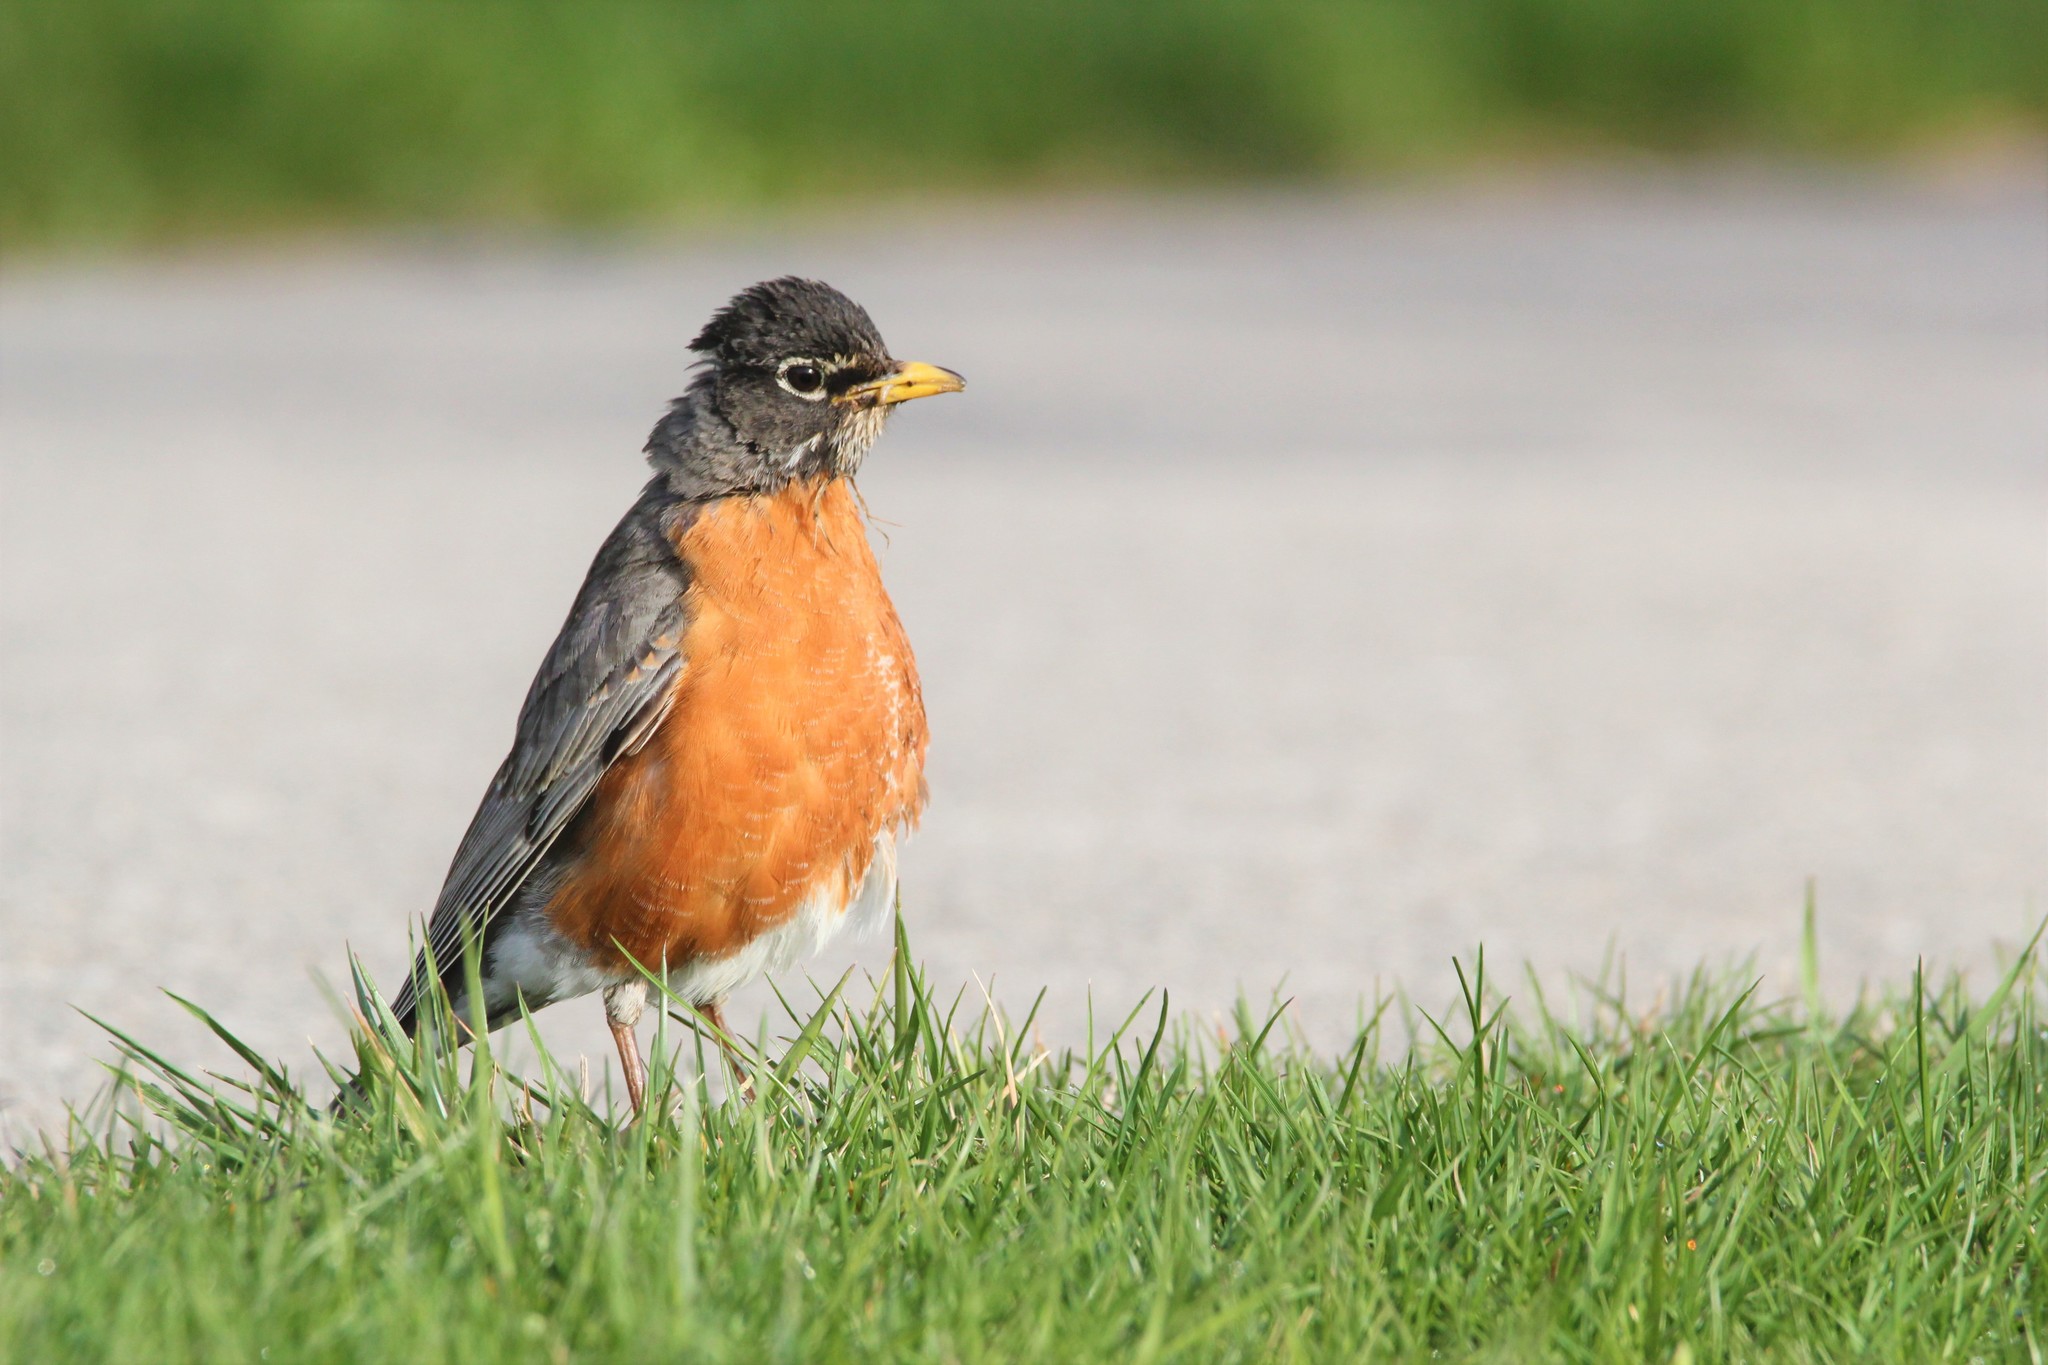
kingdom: Animalia
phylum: Chordata
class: Aves
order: Passeriformes
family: Turdidae
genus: Turdus
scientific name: Turdus migratorius
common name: American robin
